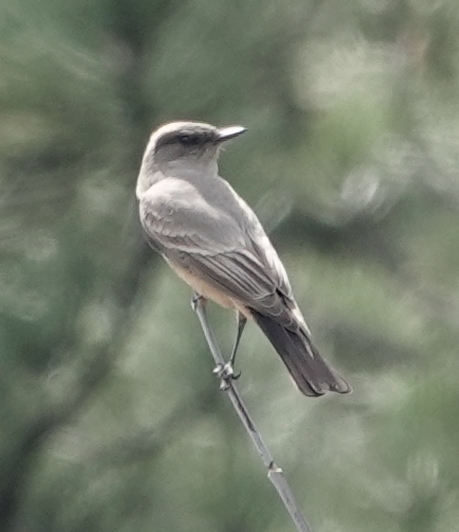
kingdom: Animalia
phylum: Chordata
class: Aves
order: Passeriformes
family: Tyrannidae
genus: Sayornis
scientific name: Sayornis saya
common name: Say's phoebe
